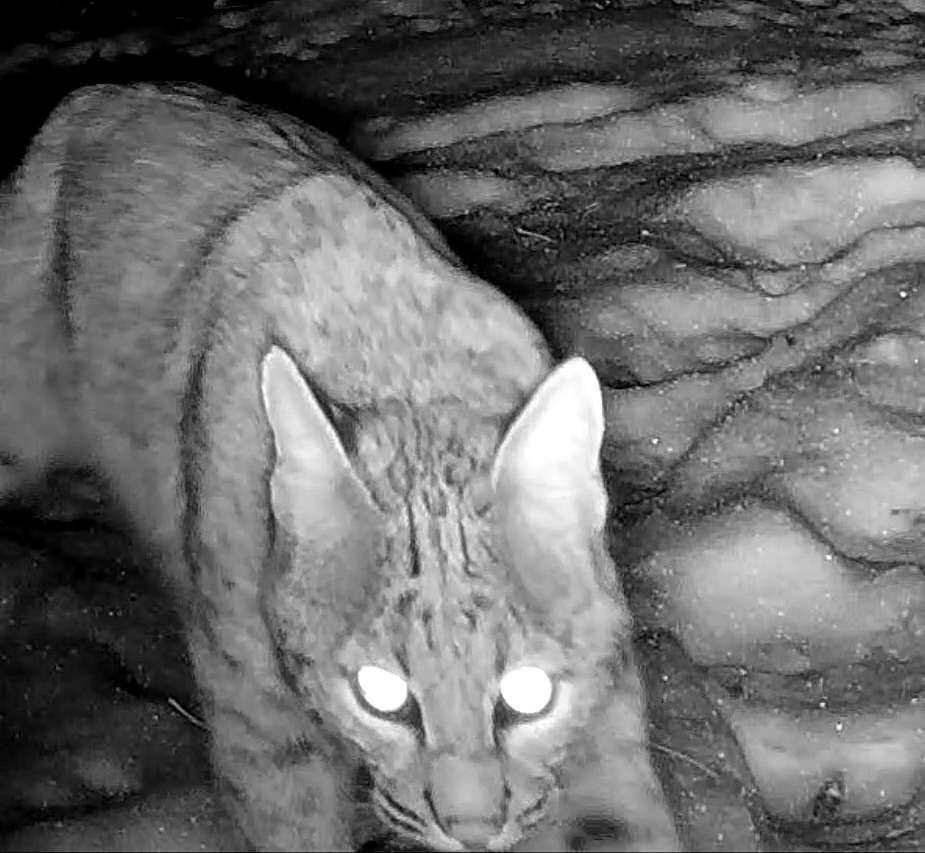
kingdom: Animalia
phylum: Chordata
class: Mammalia
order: Carnivora
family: Felidae
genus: Lynx
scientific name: Lynx rufus
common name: Bobcat
